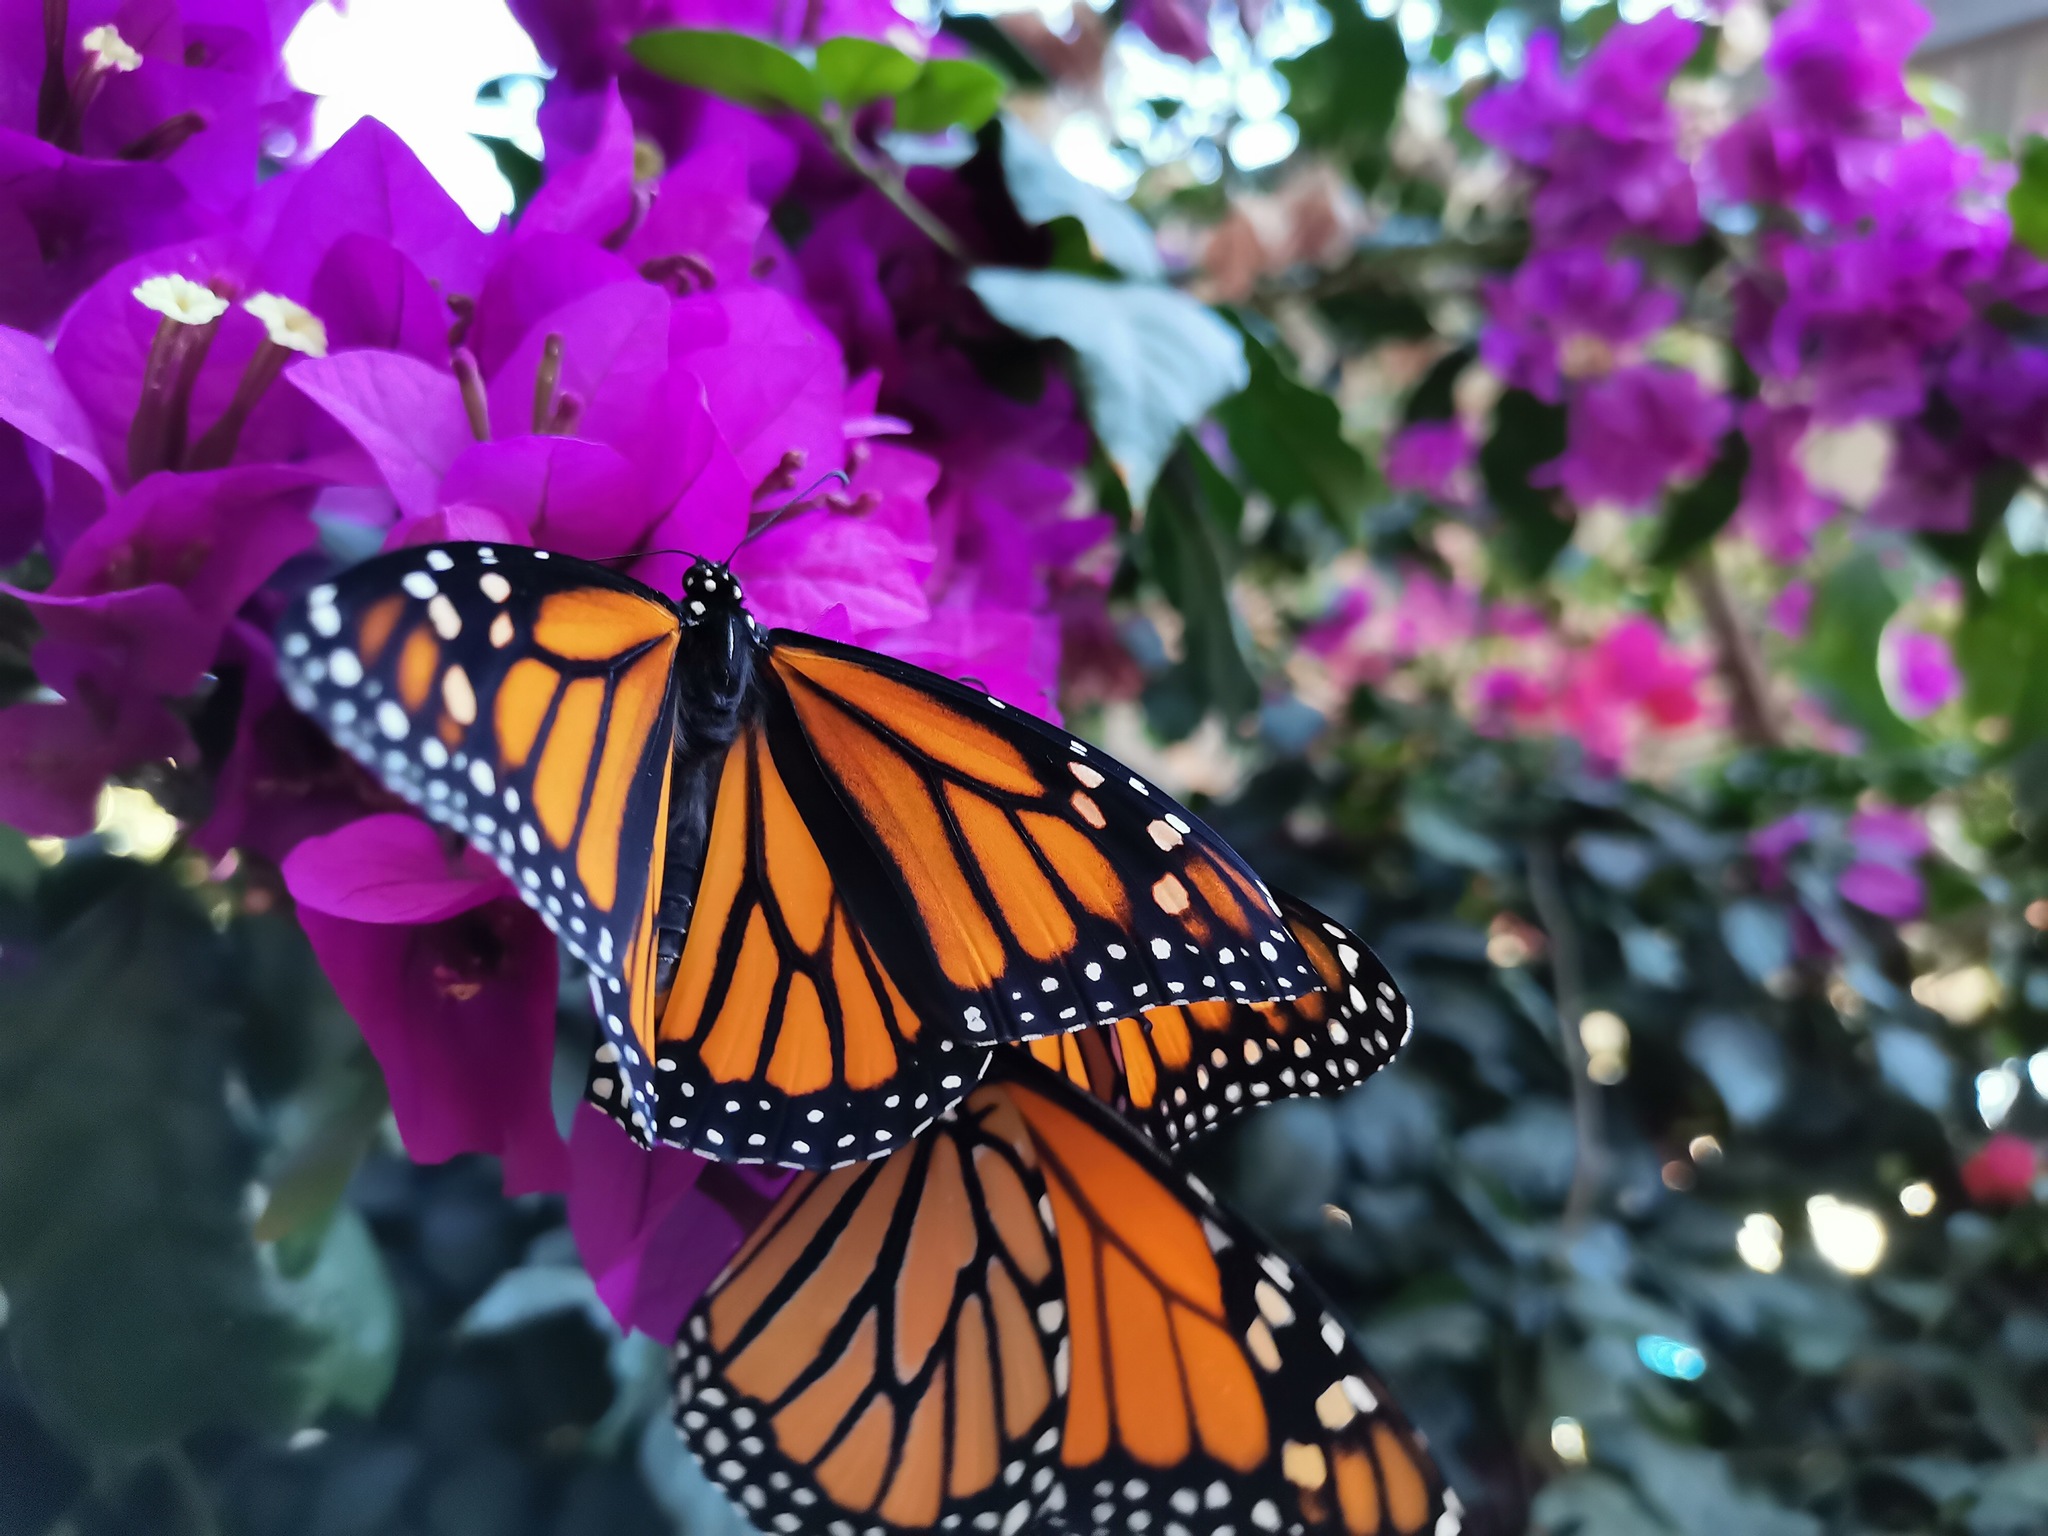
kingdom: Animalia
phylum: Arthropoda
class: Insecta
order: Lepidoptera
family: Nymphalidae
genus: Danaus
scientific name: Danaus plexippus
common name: Monarch
